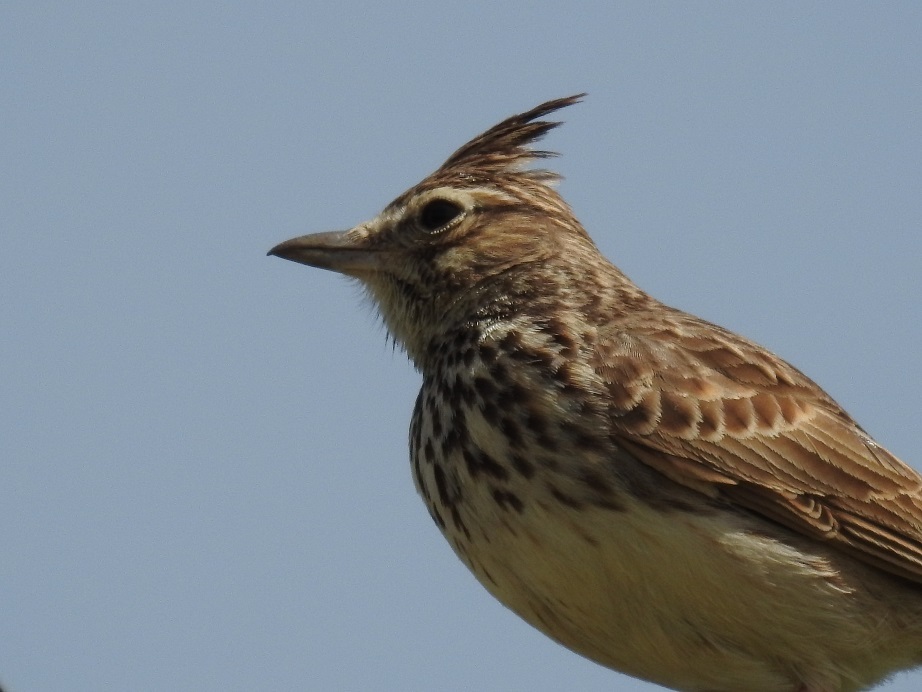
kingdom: Animalia
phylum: Chordata
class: Aves
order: Passeriformes
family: Alaudidae
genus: Galerida
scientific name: Galerida cristata
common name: Crested lark
